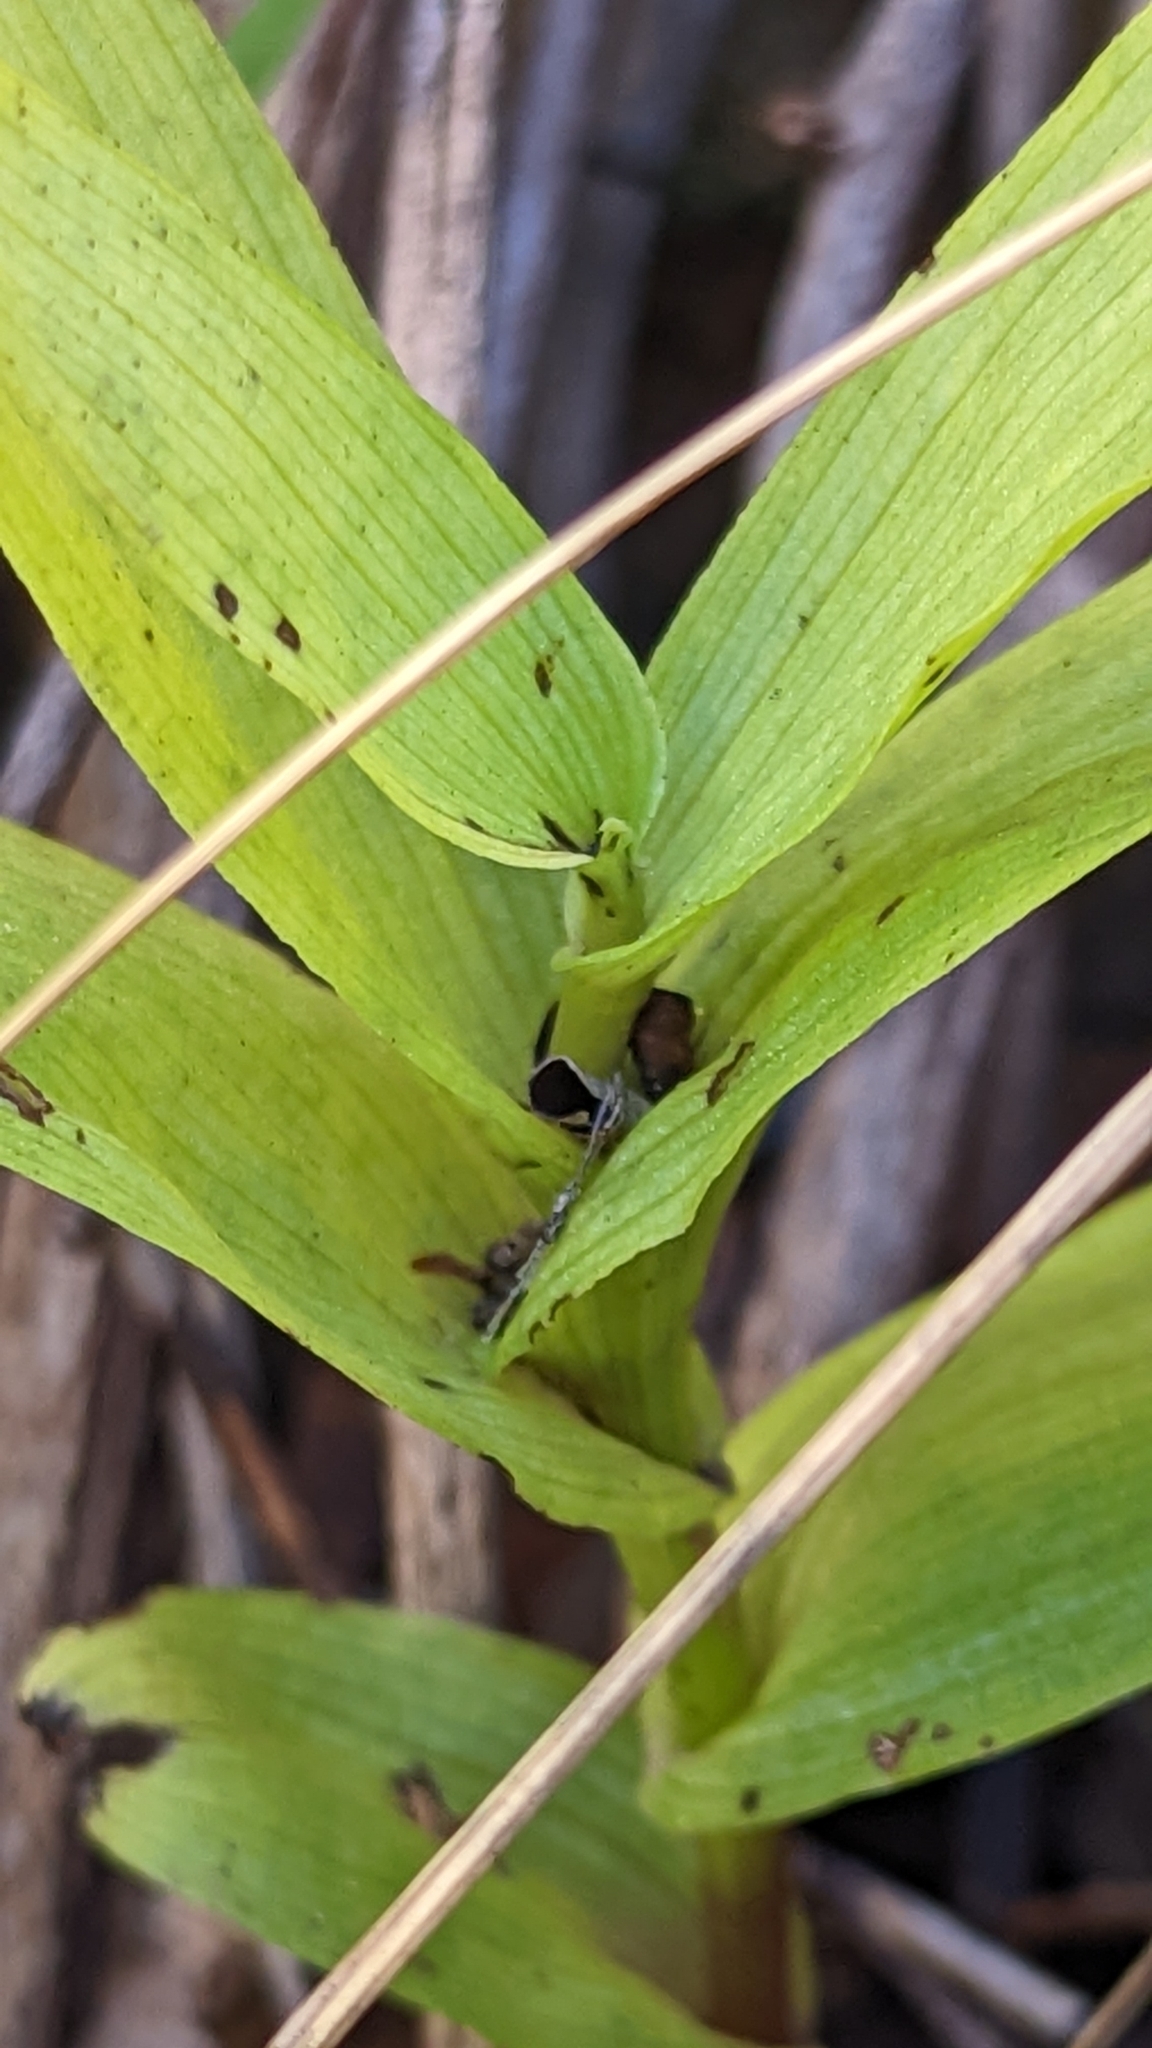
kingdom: Plantae
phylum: Tracheophyta
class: Liliopsida
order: Asparagales
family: Orchidaceae
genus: Epipactis
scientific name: Epipactis gigantea
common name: Chatterbox
